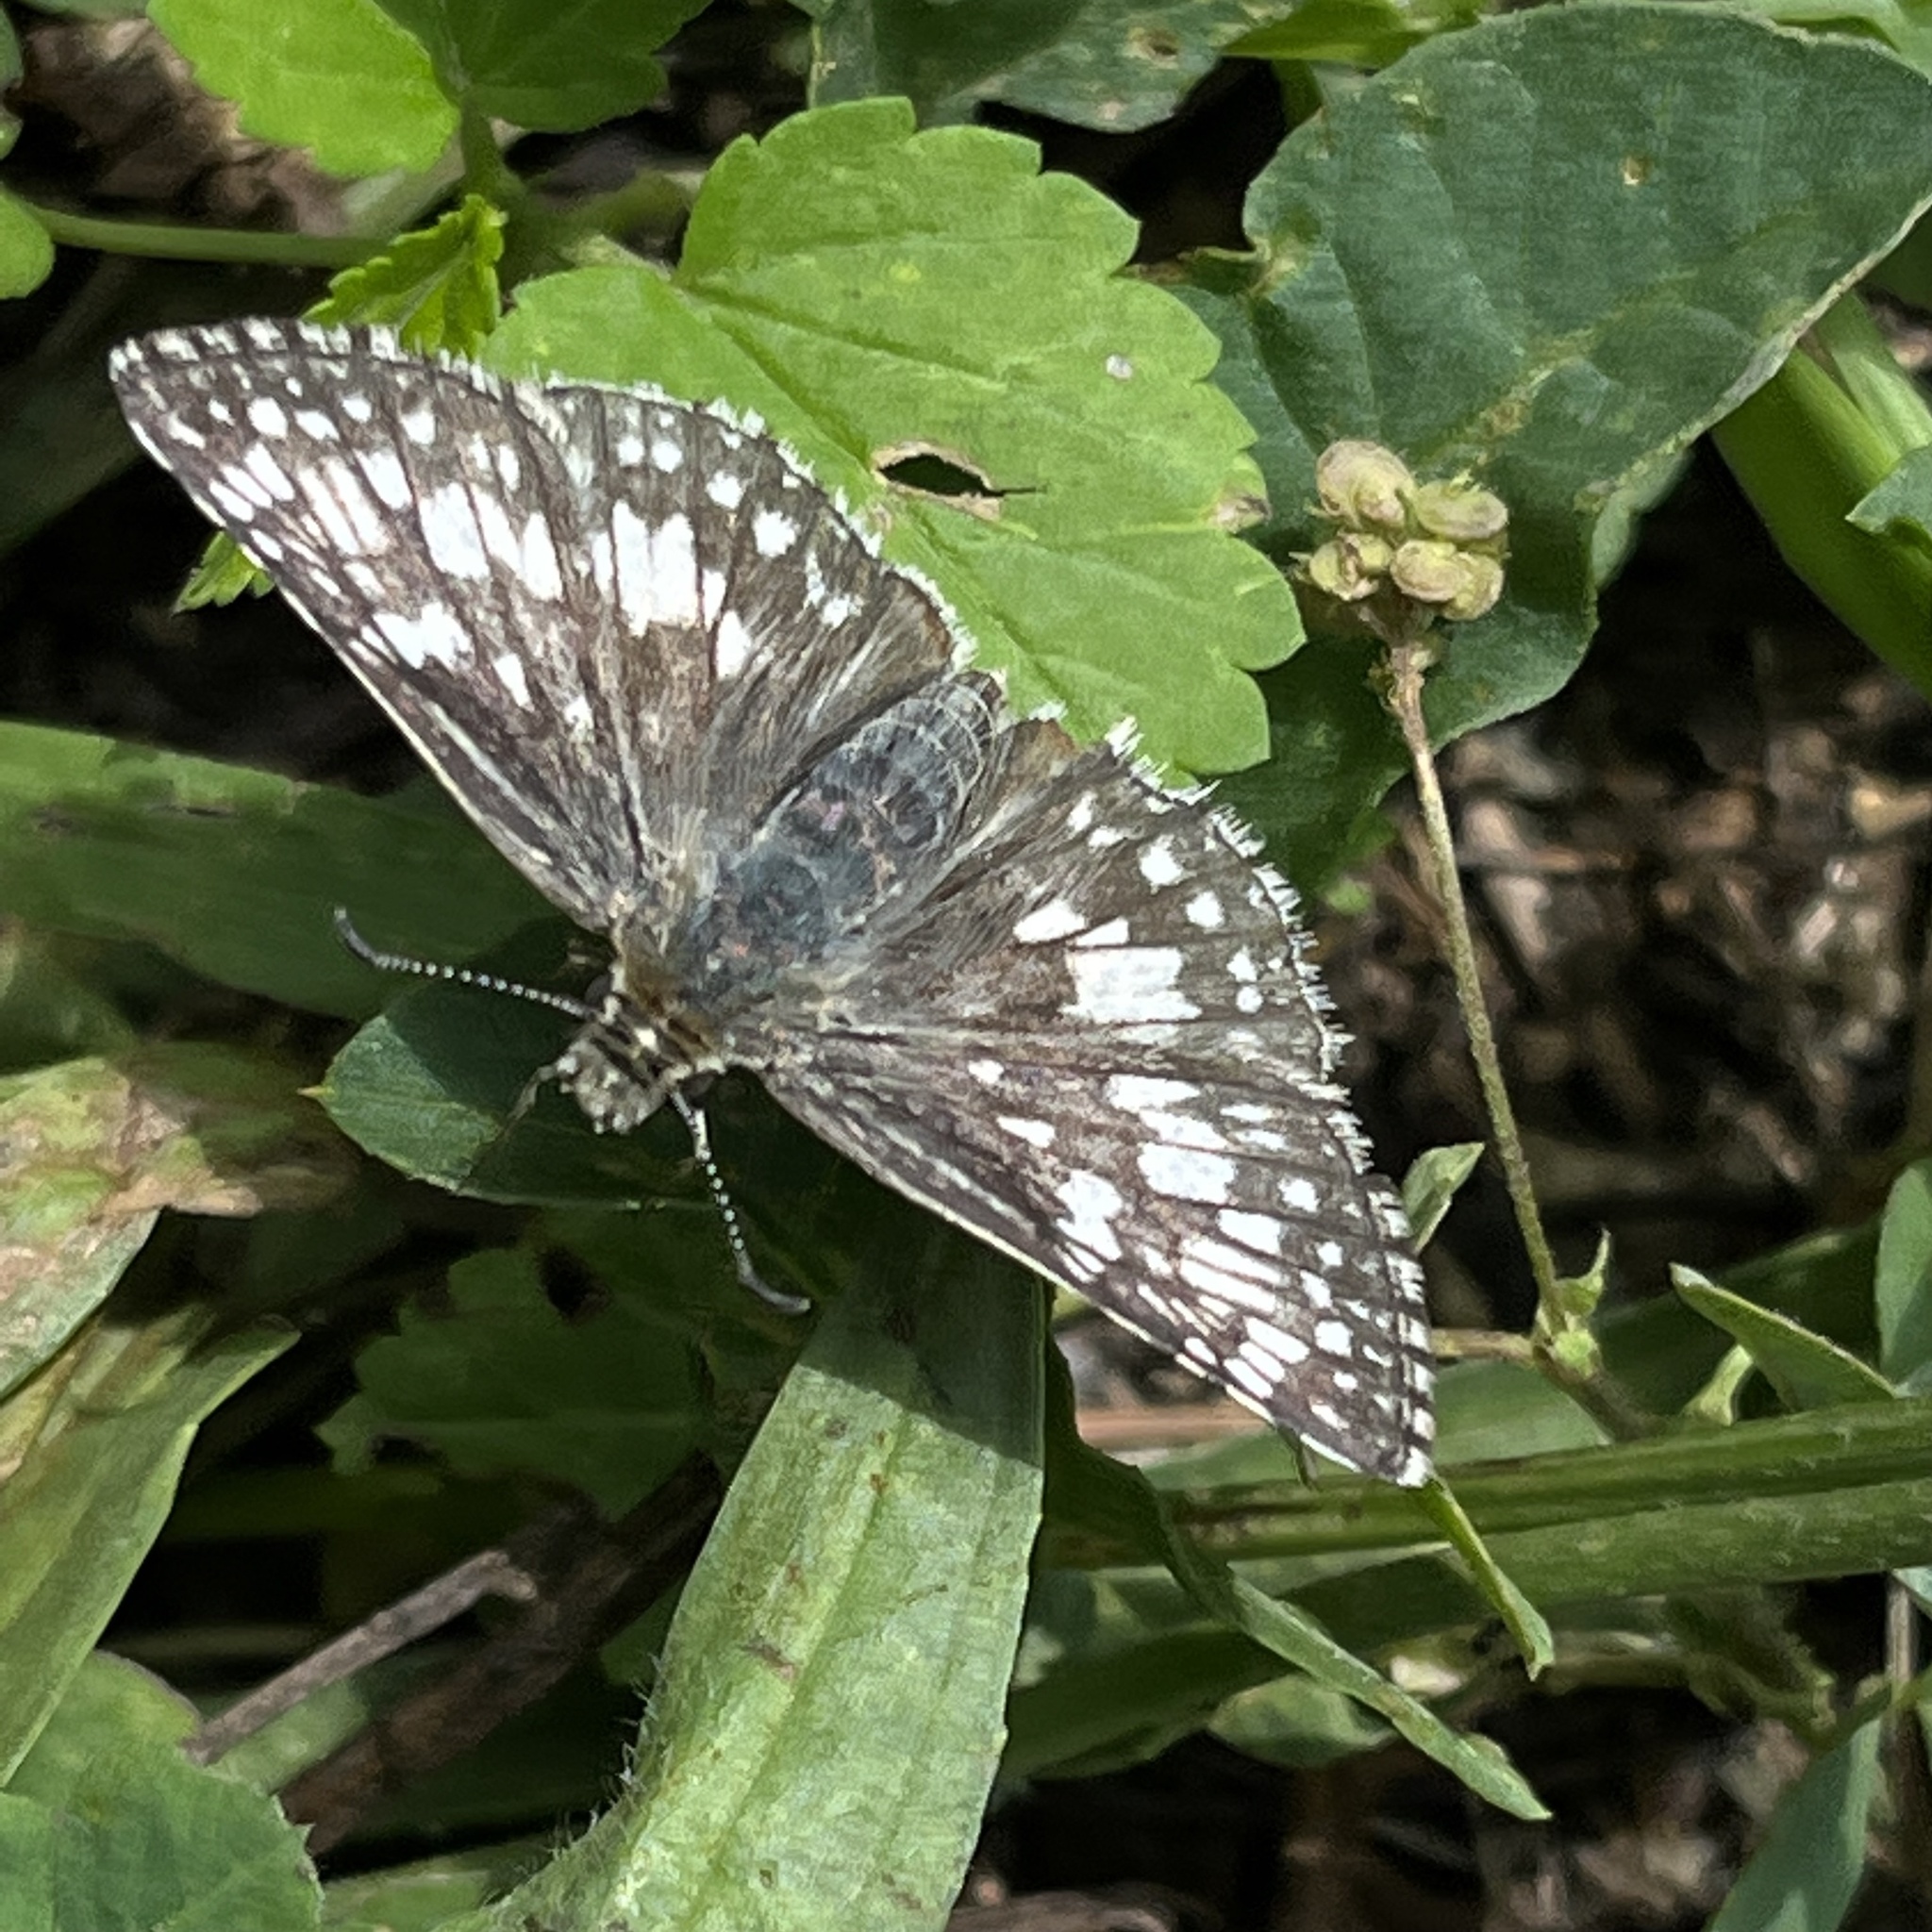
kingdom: Animalia
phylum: Arthropoda
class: Insecta
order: Lepidoptera
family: Hesperiidae
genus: Burnsius
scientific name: Burnsius communis
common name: Common checkered-skipper
